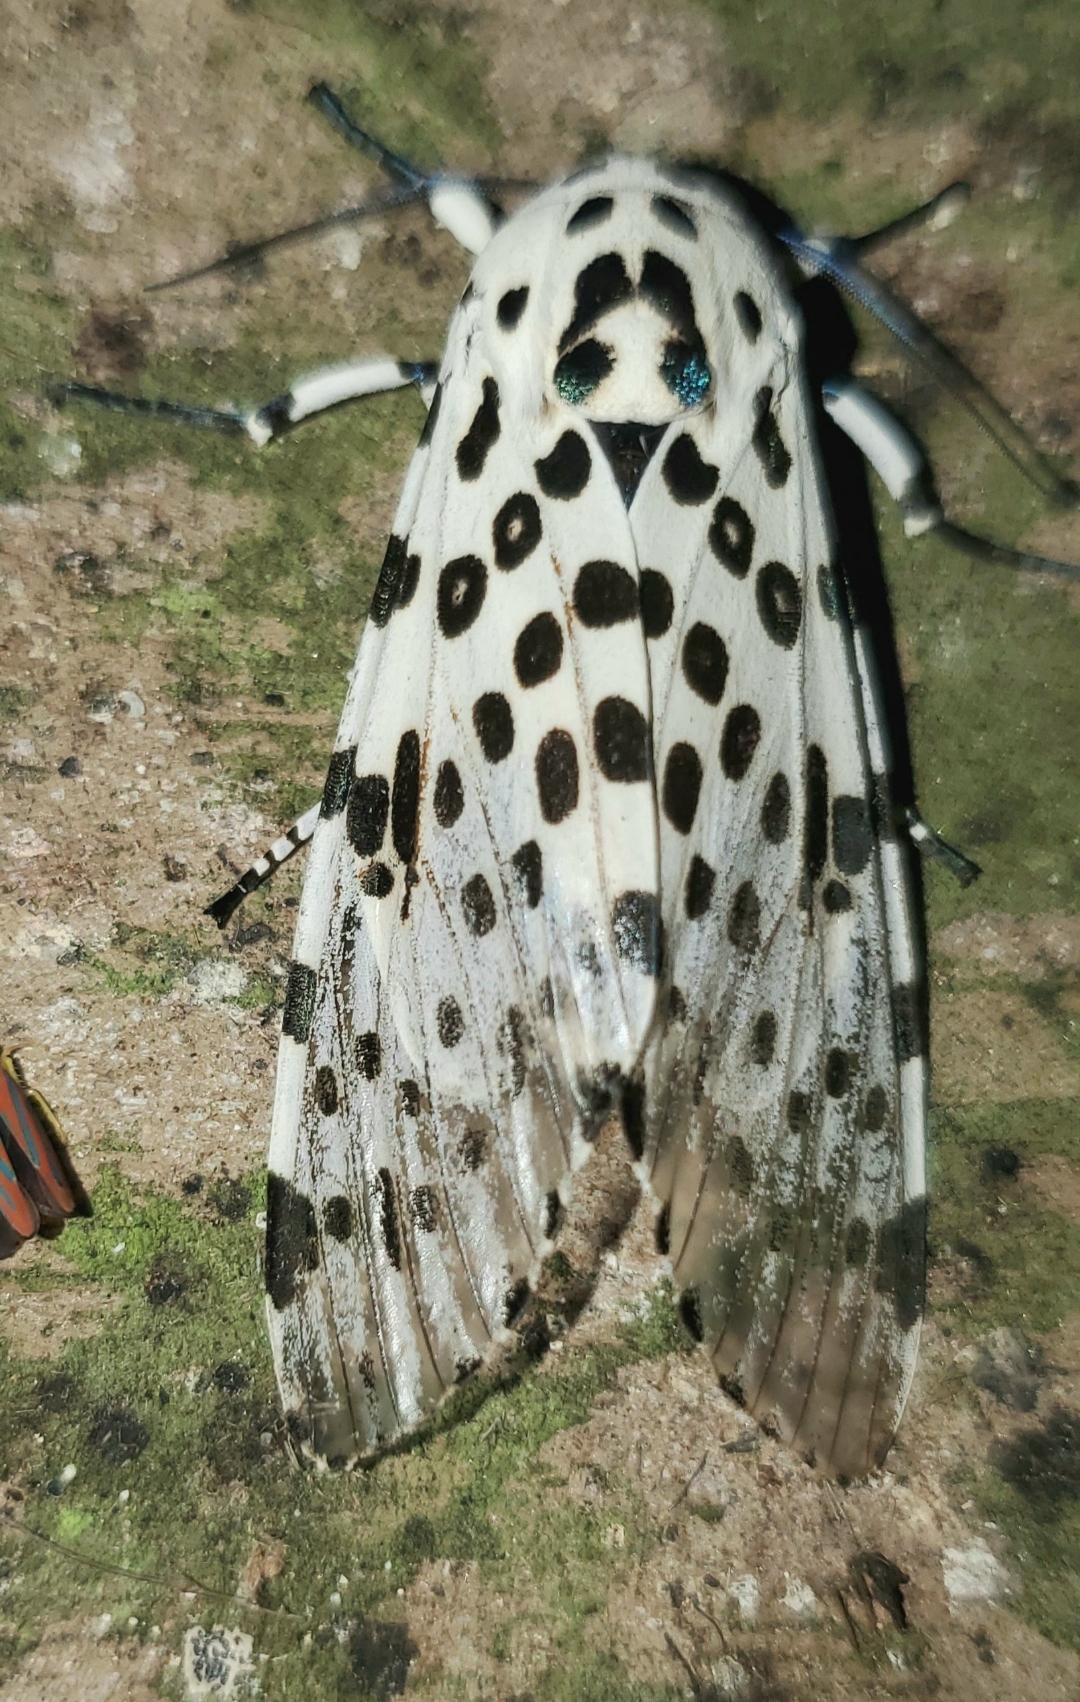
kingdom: Animalia
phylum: Arthropoda
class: Insecta
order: Lepidoptera
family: Erebidae
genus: Hypercompe
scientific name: Hypercompe scribonia
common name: Giant leopard moth
